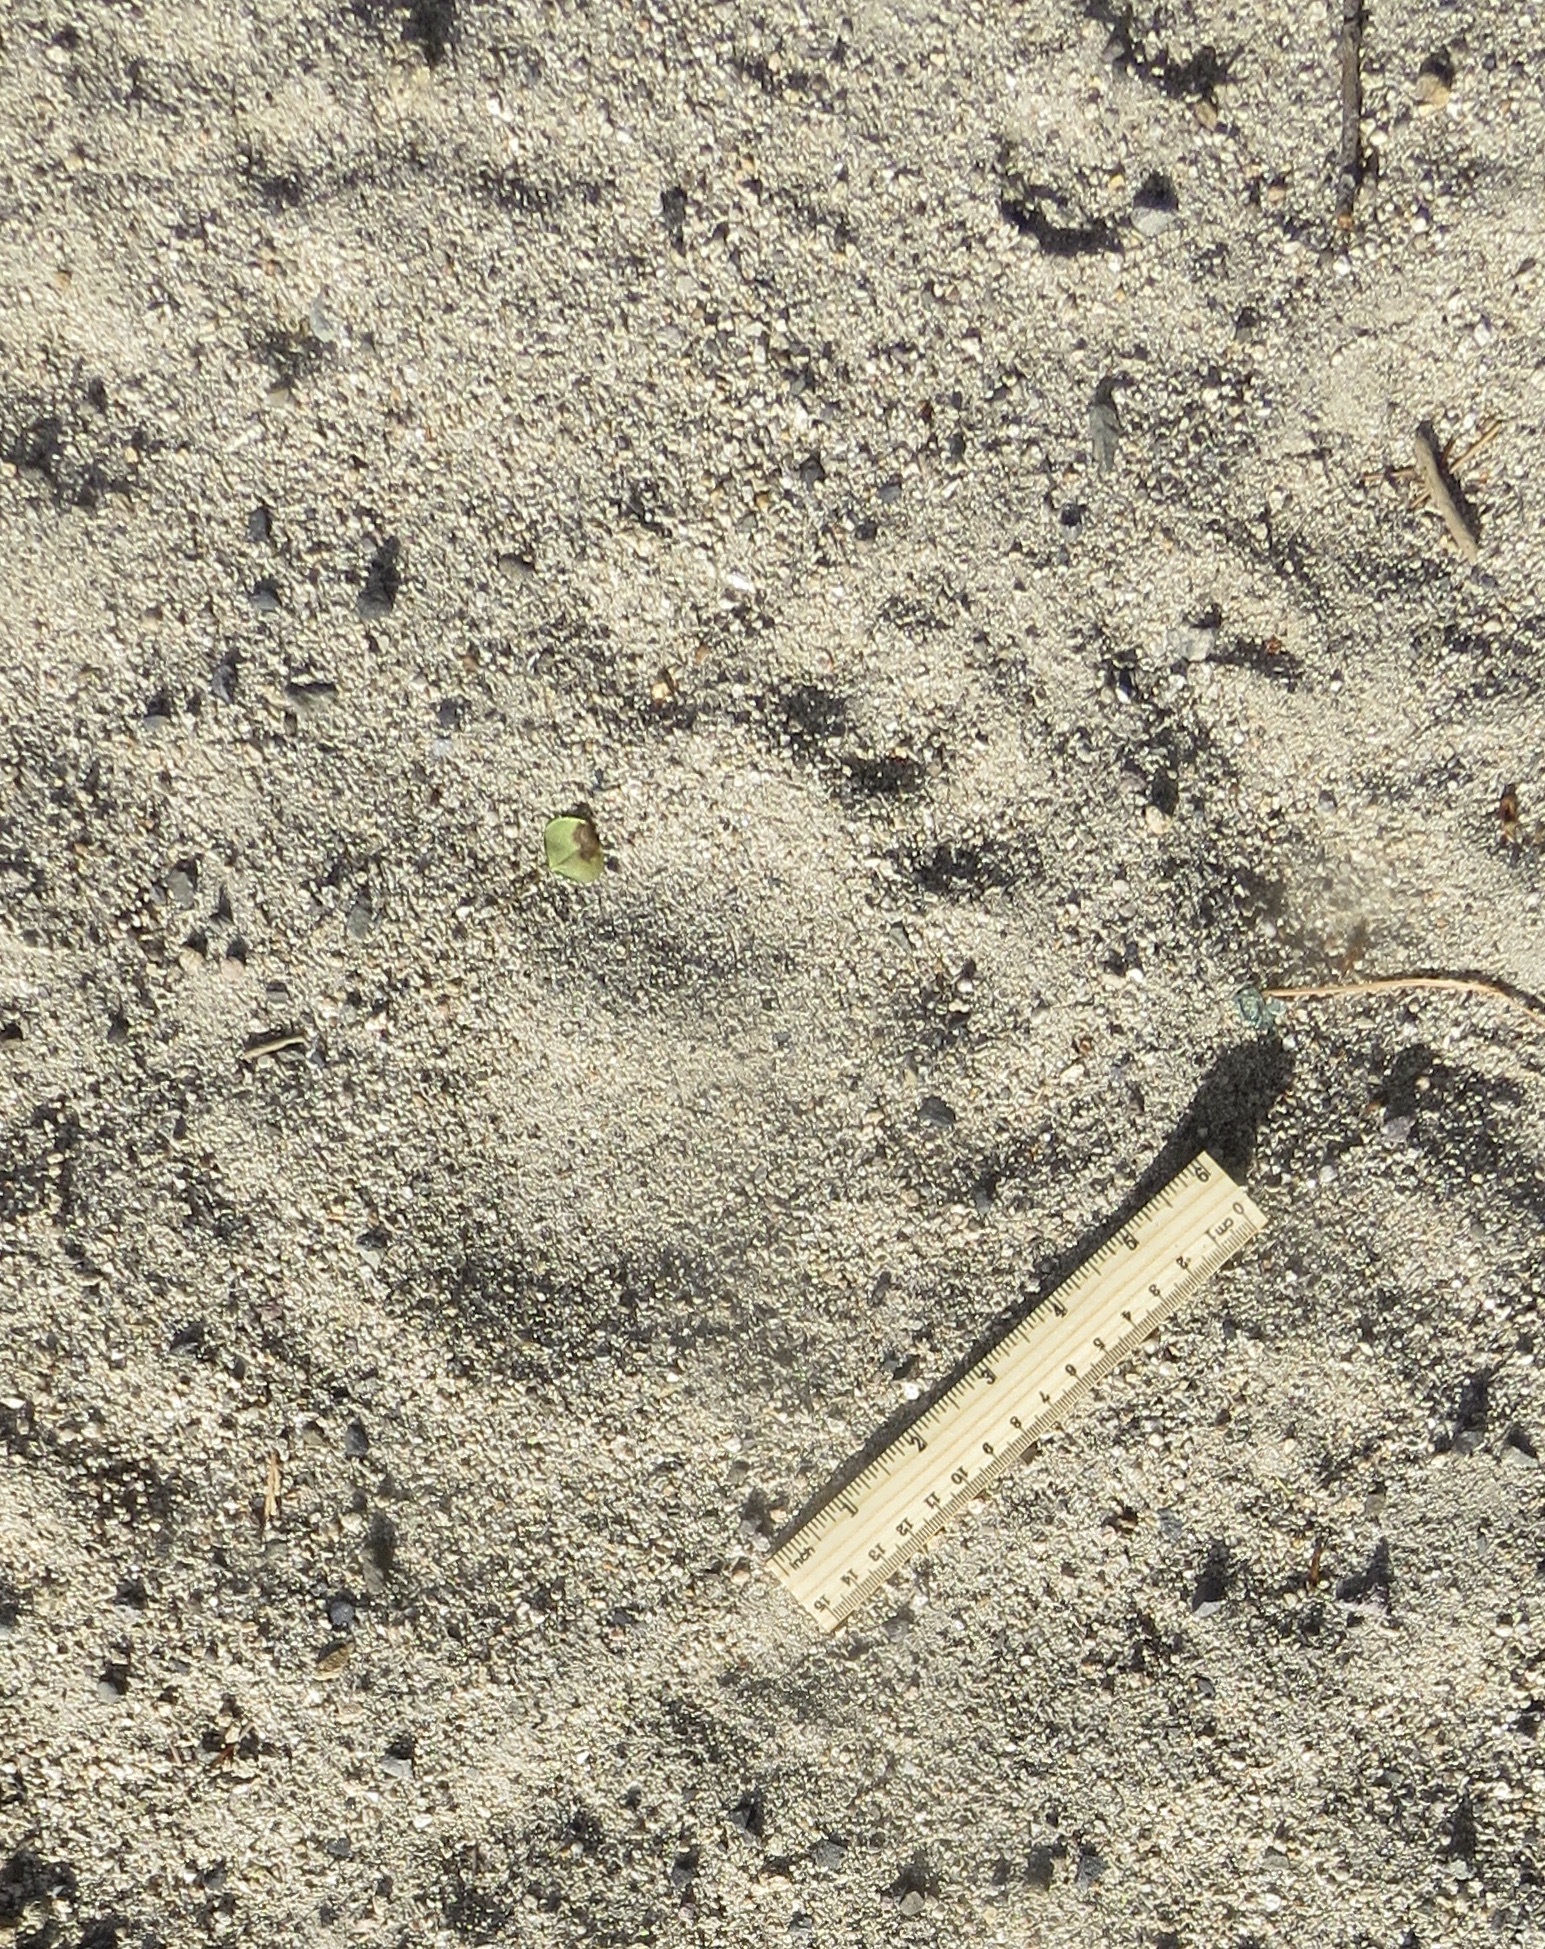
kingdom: Animalia
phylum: Chordata
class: Mammalia
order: Carnivora
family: Ursidae
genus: Ursus
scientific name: Ursus americanus
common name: American black bear
